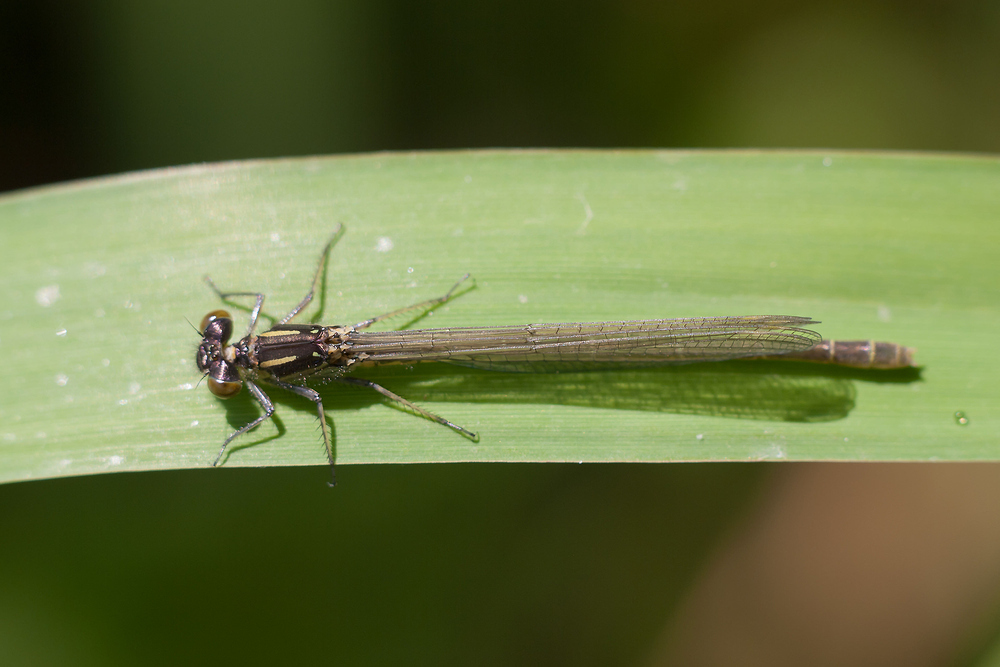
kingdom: Animalia
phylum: Arthropoda
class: Insecta
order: Odonata
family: Coenagrionidae
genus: Erythromma
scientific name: Erythromma najas
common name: Red-eyed damselfly
